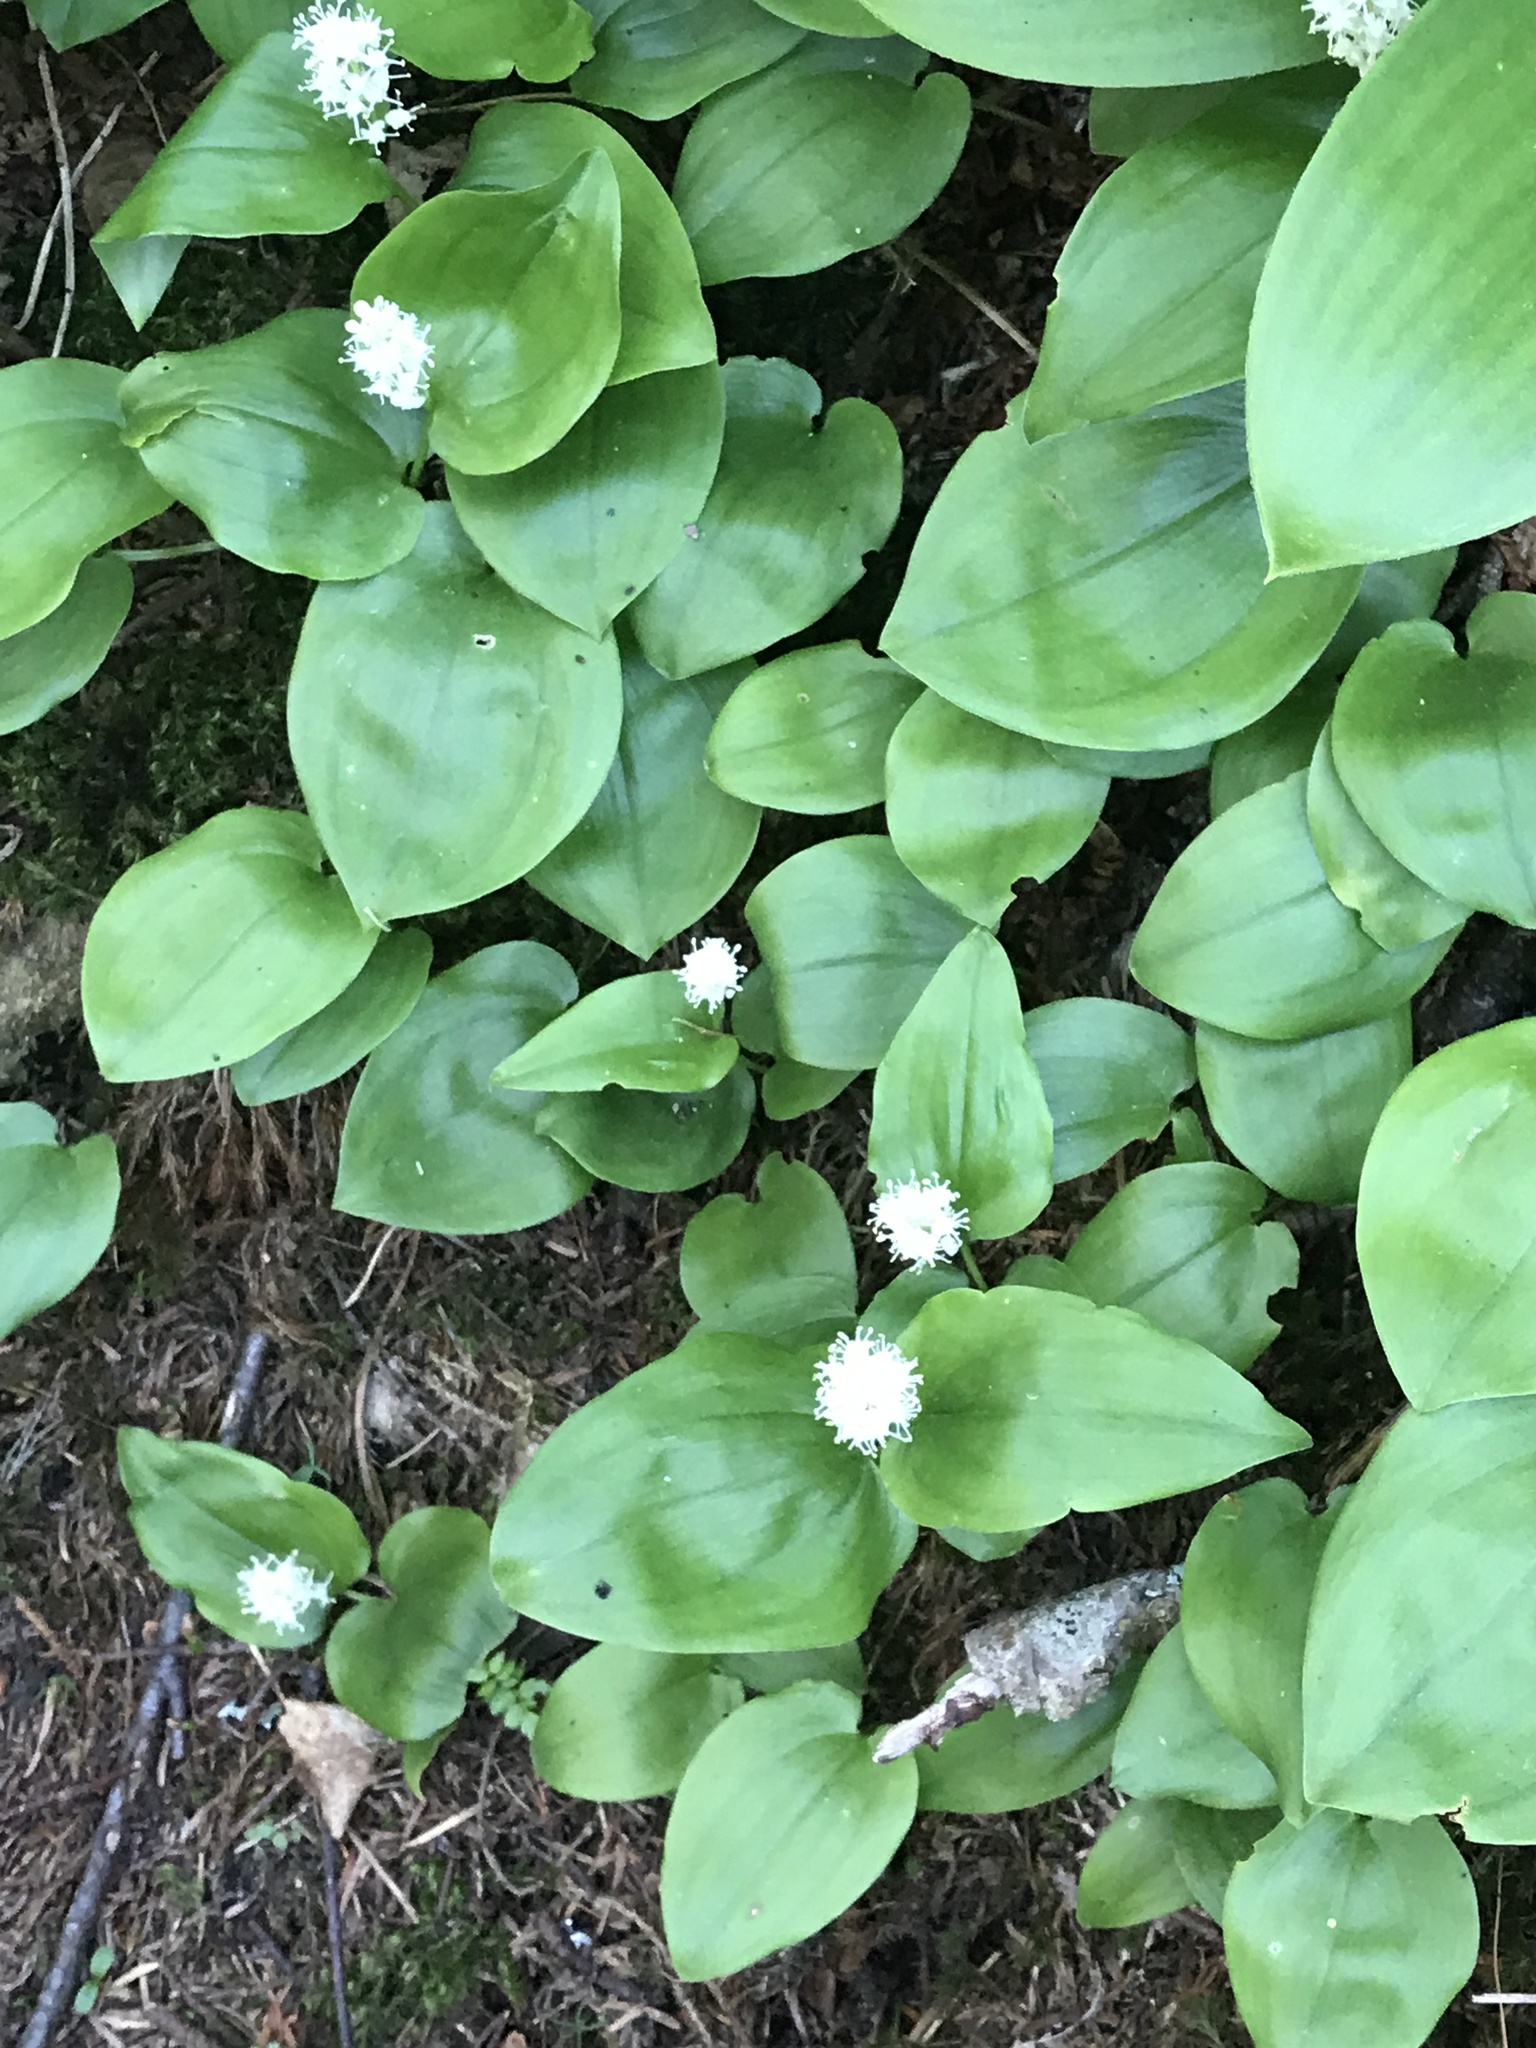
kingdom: Plantae
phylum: Tracheophyta
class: Liliopsida
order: Asparagales
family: Asparagaceae
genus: Maianthemum
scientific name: Maianthemum canadense
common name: False lily-of-the-valley
